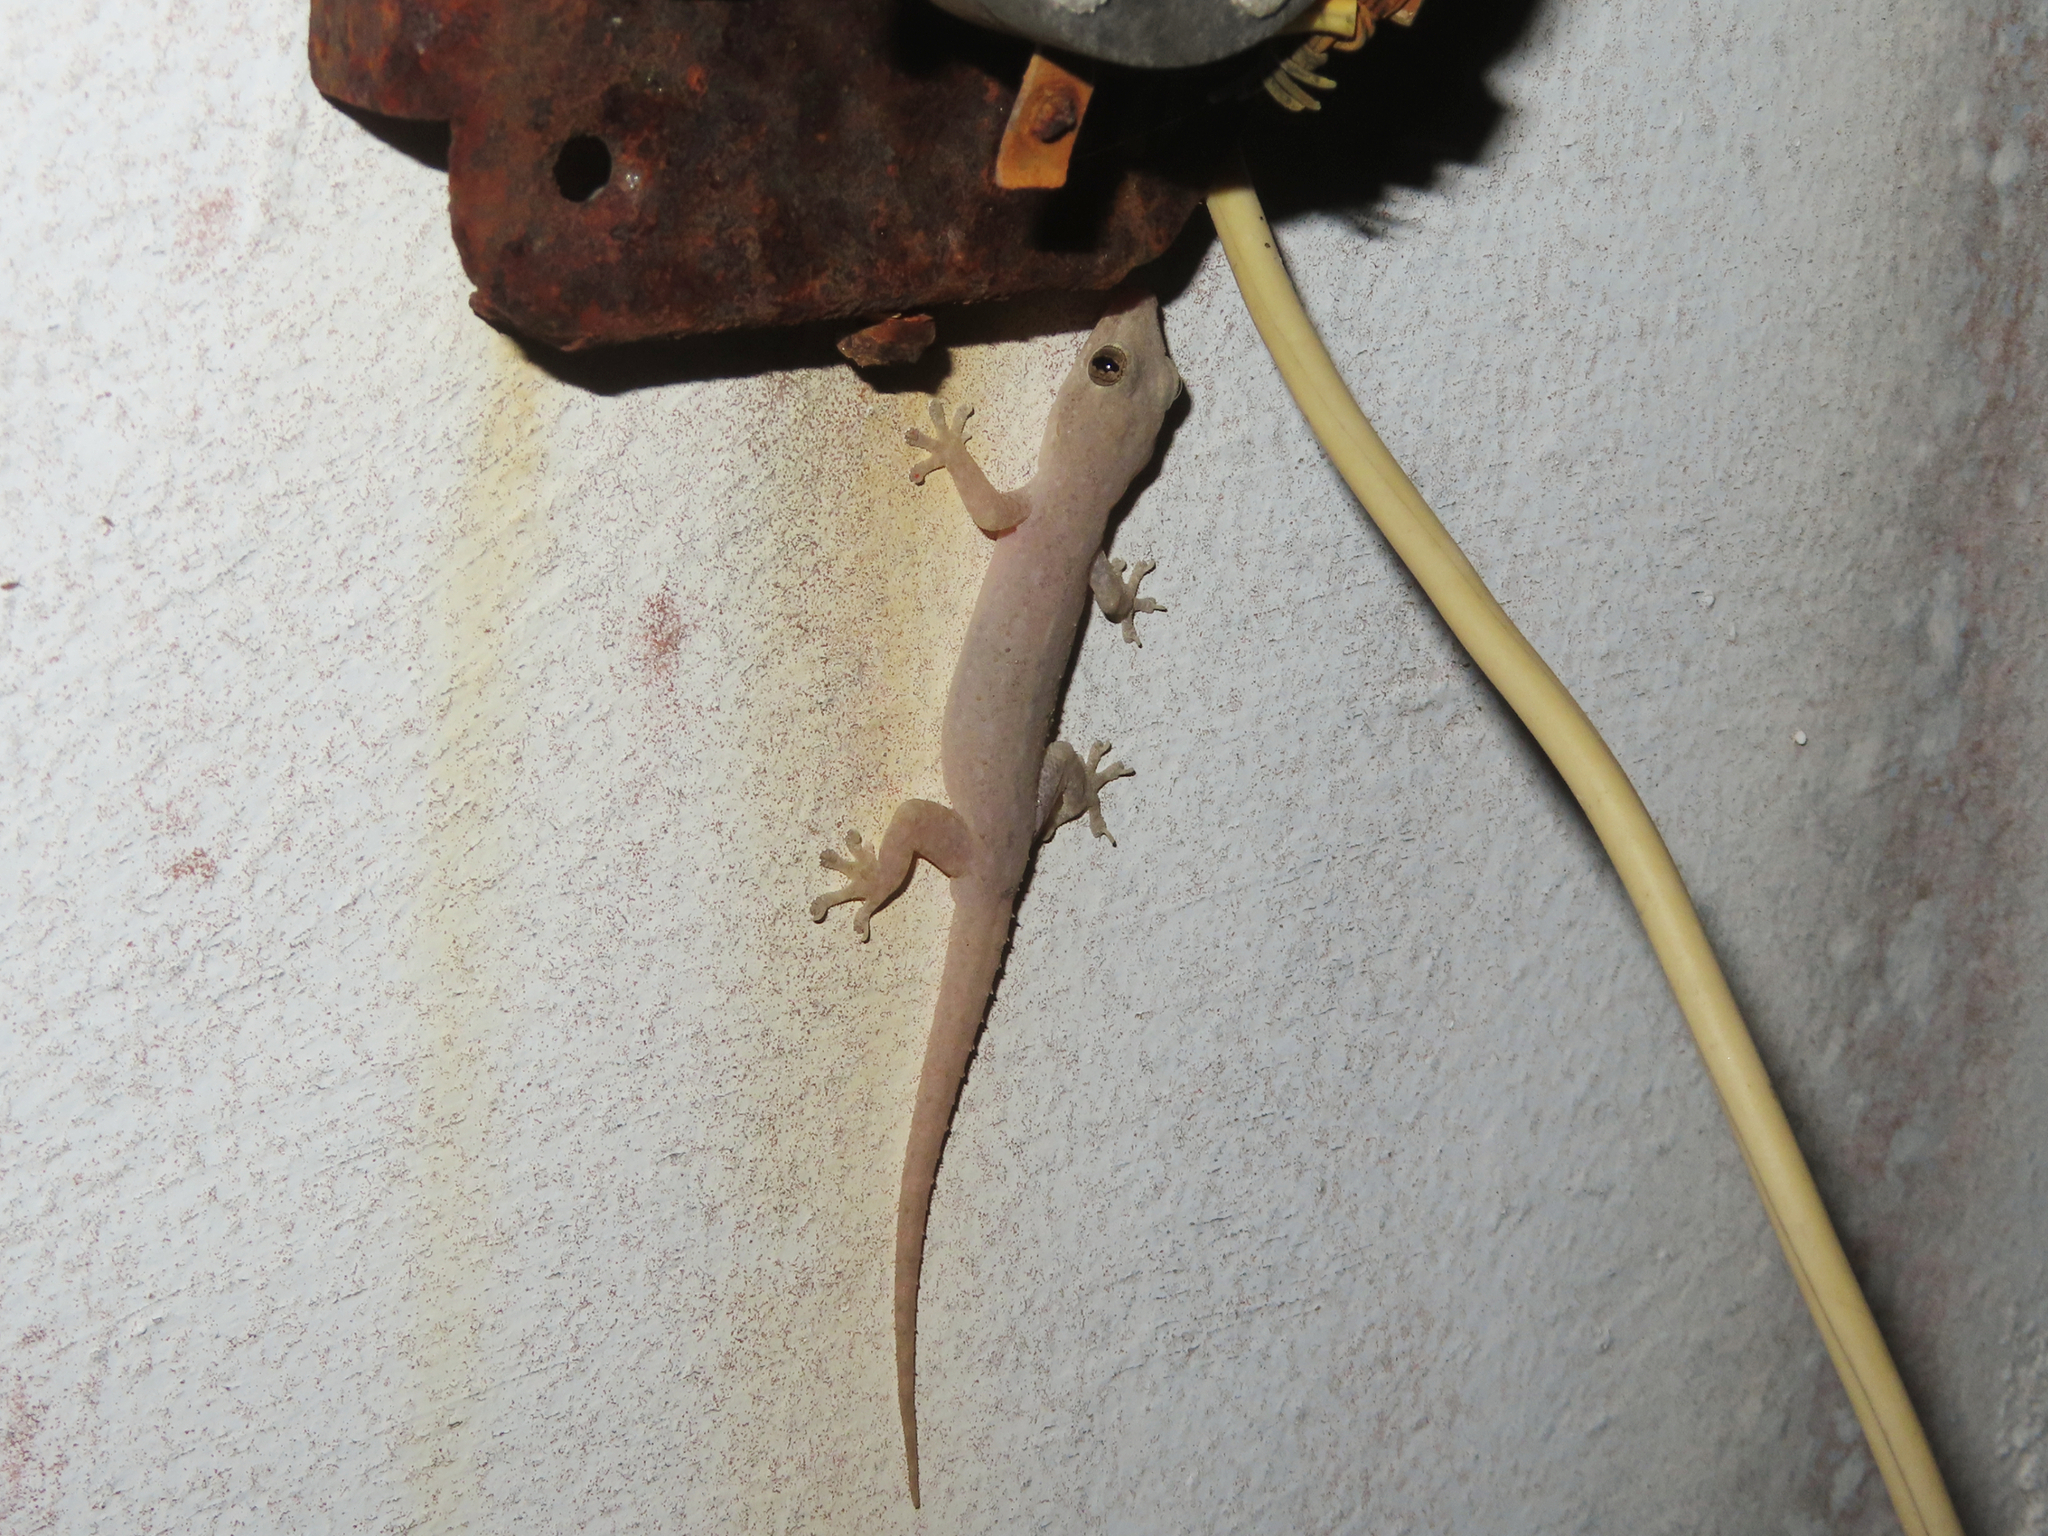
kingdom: Animalia
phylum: Chordata
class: Squamata
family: Gekkonidae
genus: Hemidactylus
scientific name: Hemidactylus frenatus
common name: Common house gecko
